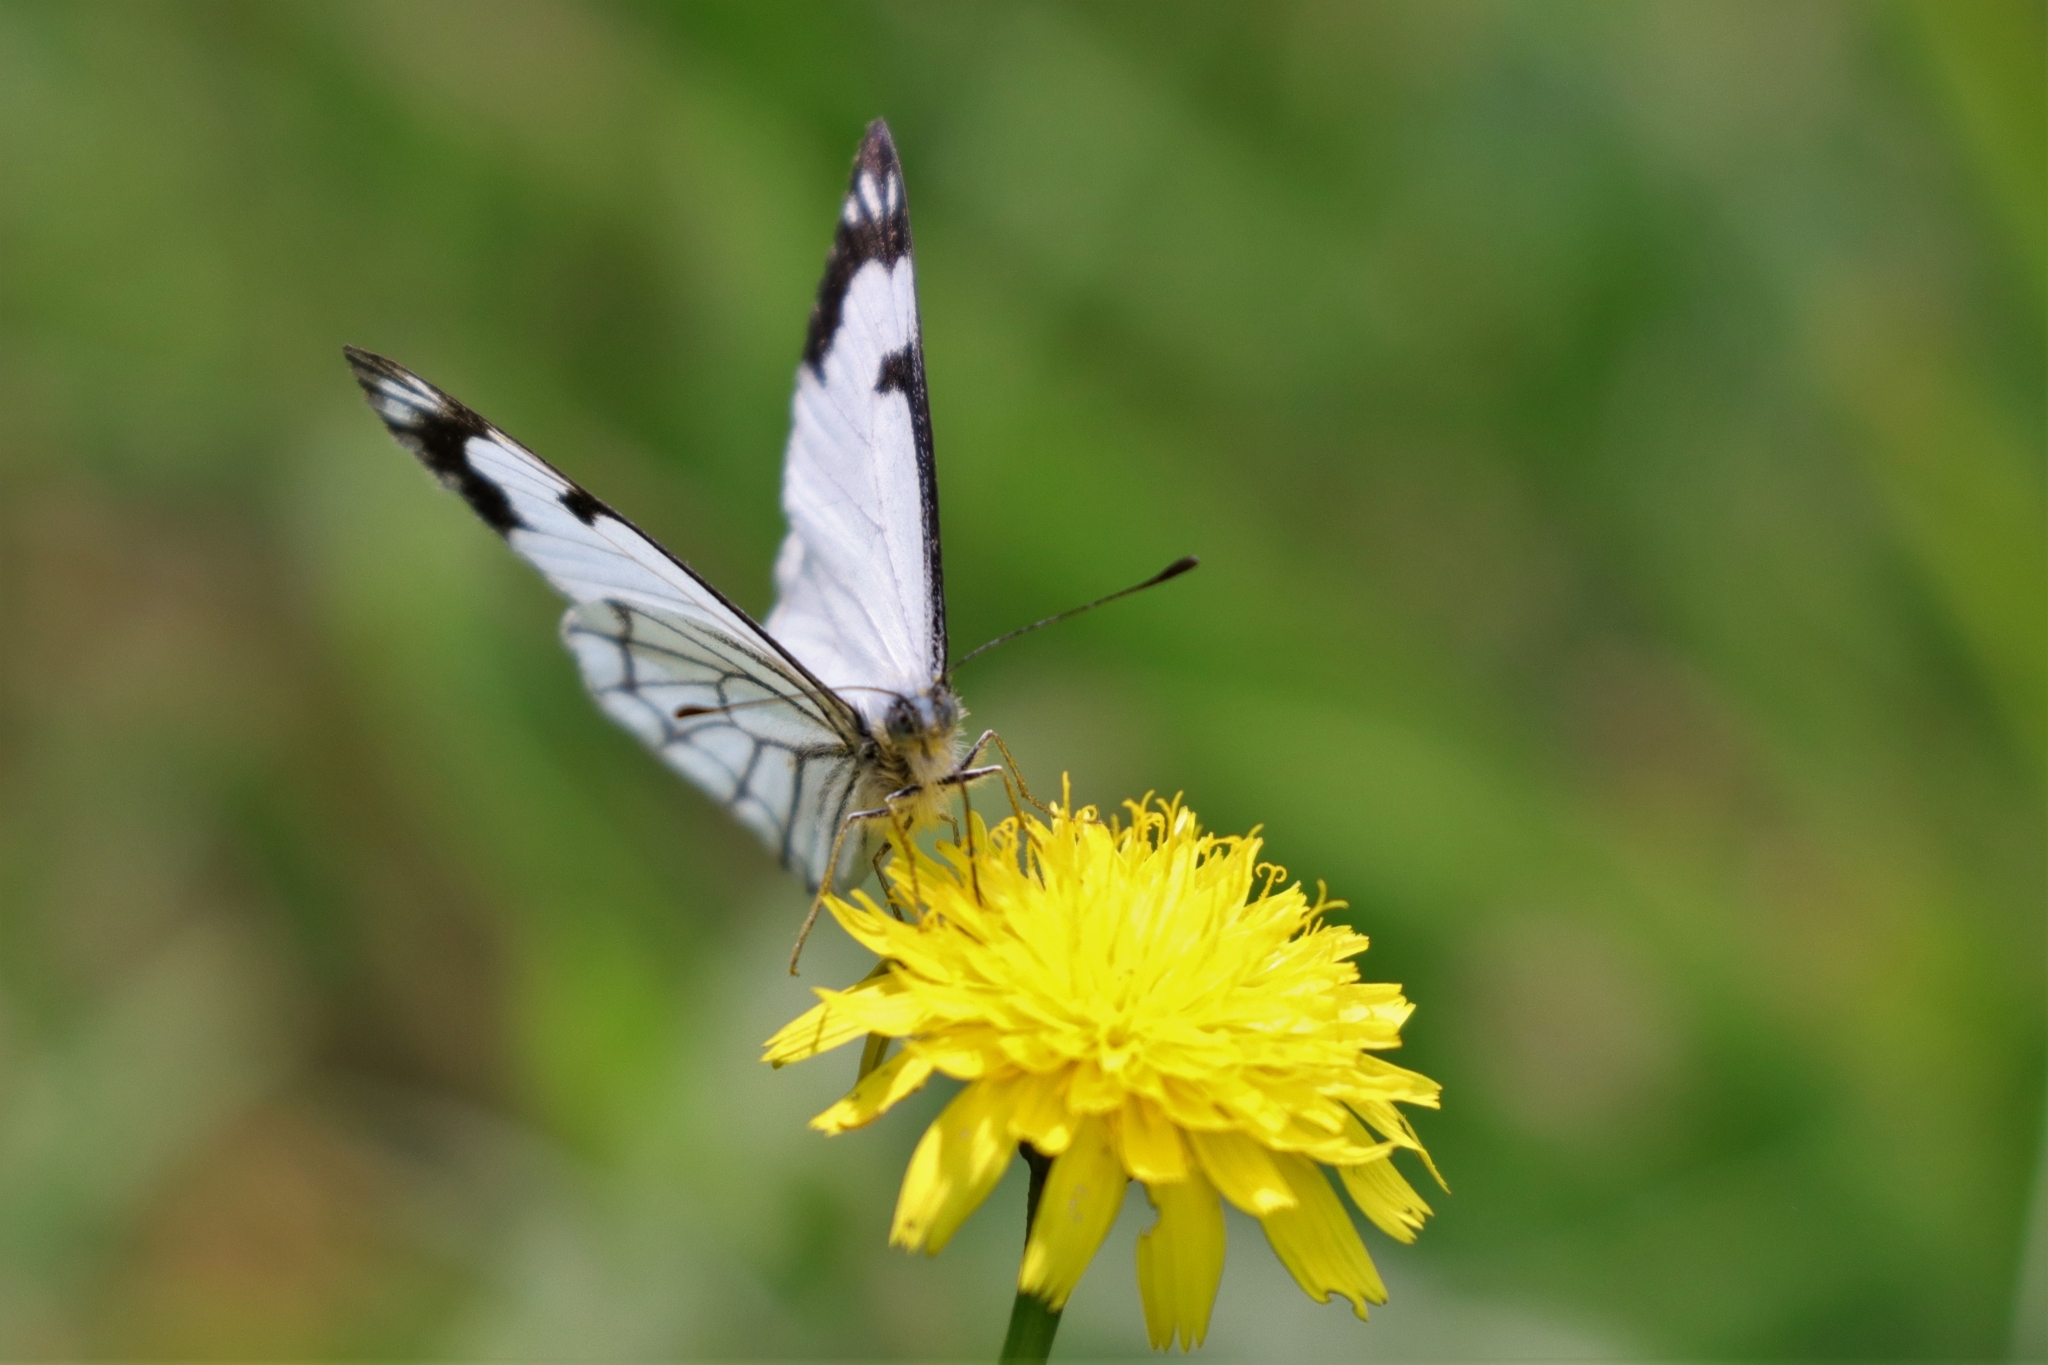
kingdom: Animalia
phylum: Arthropoda
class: Insecta
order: Lepidoptera
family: Pieridae
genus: Neophasia
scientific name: Neophasia menapia
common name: Pine white
